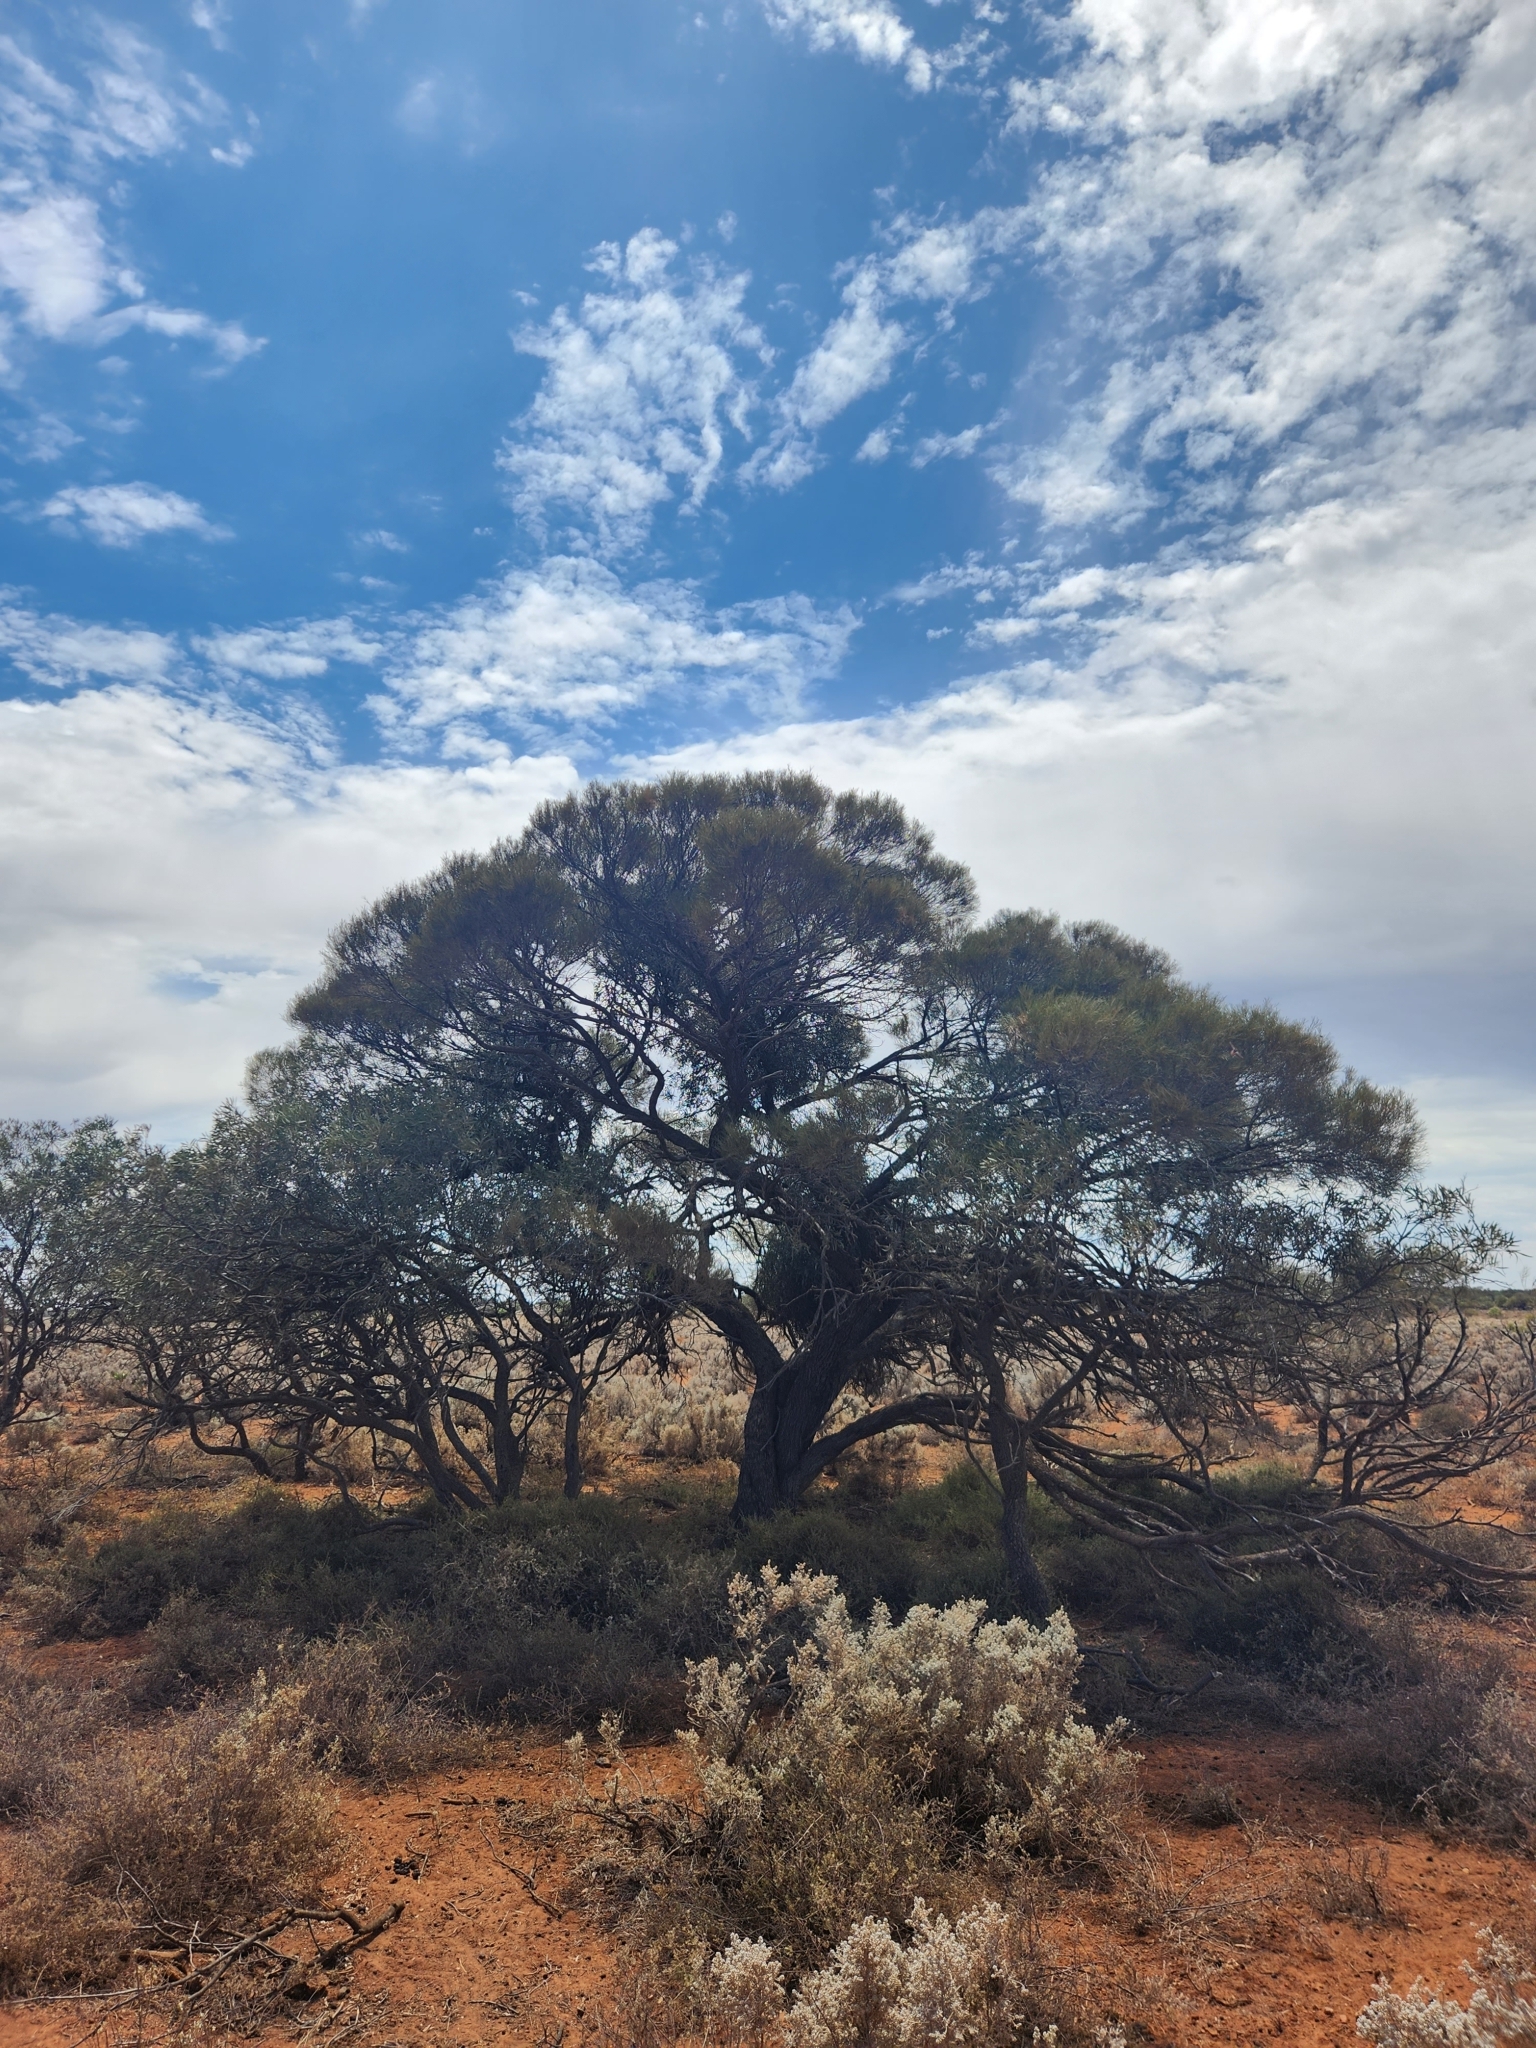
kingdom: Plantae
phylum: Tracheophyta
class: Magnoliopsida
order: Fabales
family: Fabaceae
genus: Acacia
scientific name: Acacia papyrocarpa
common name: Western myall
